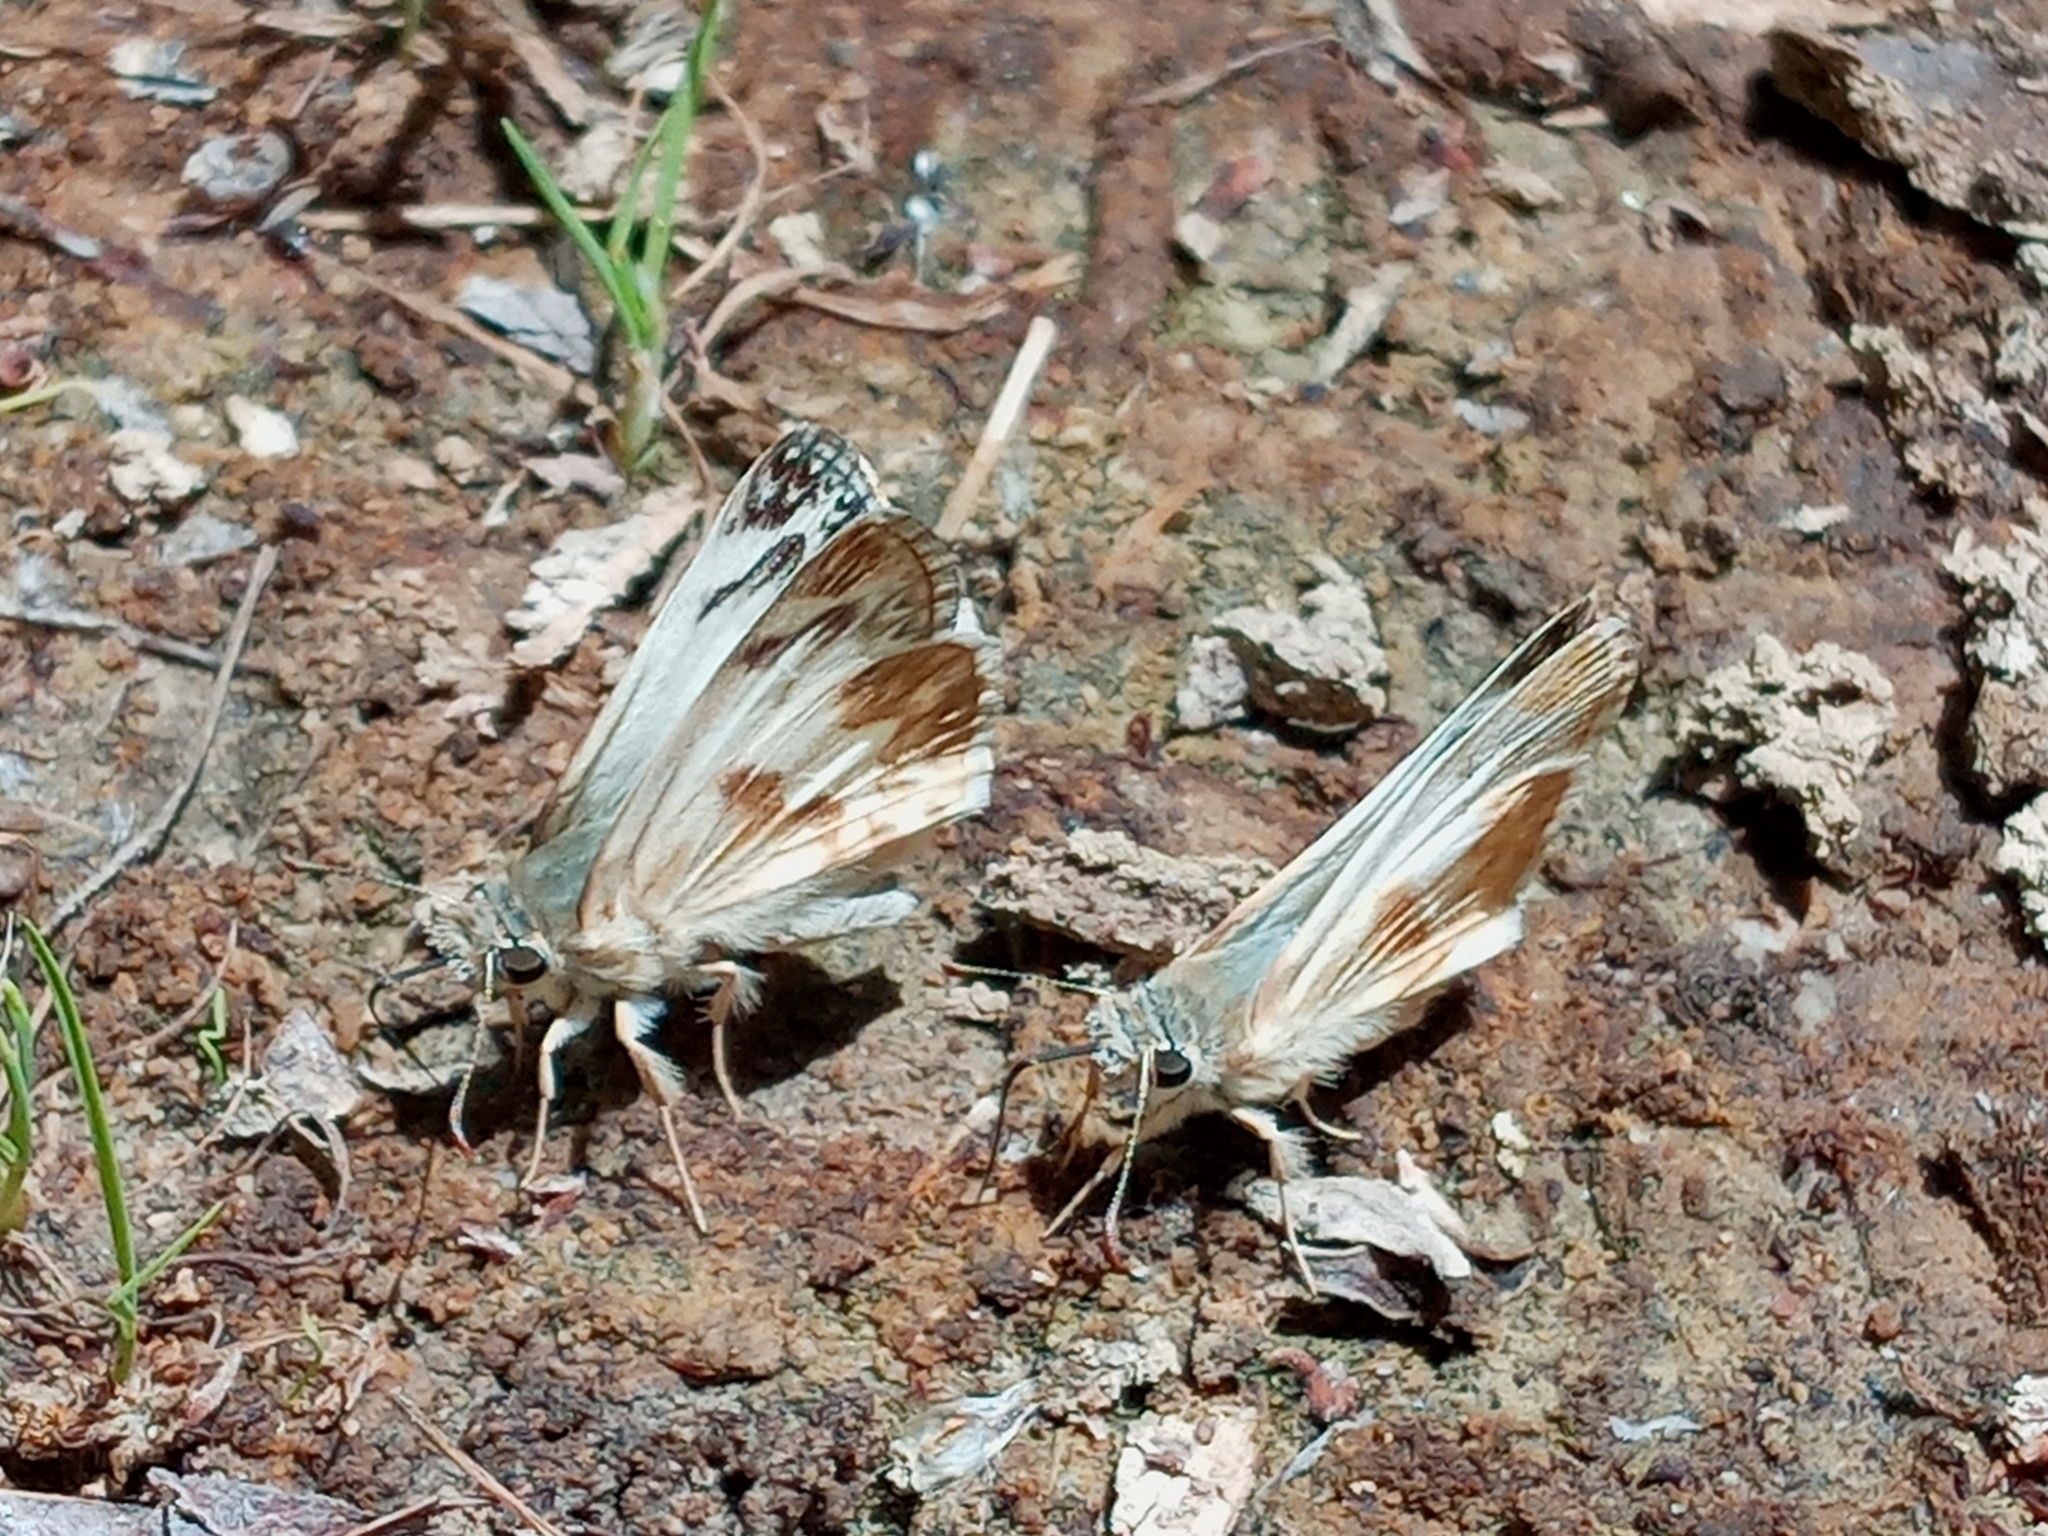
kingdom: Animalia
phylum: Arthropoda
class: Insecta
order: Lepidoptera
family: Hesperiidae
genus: Heliopetes
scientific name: Heliopetes ericetorum
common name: Northern white-skipper
